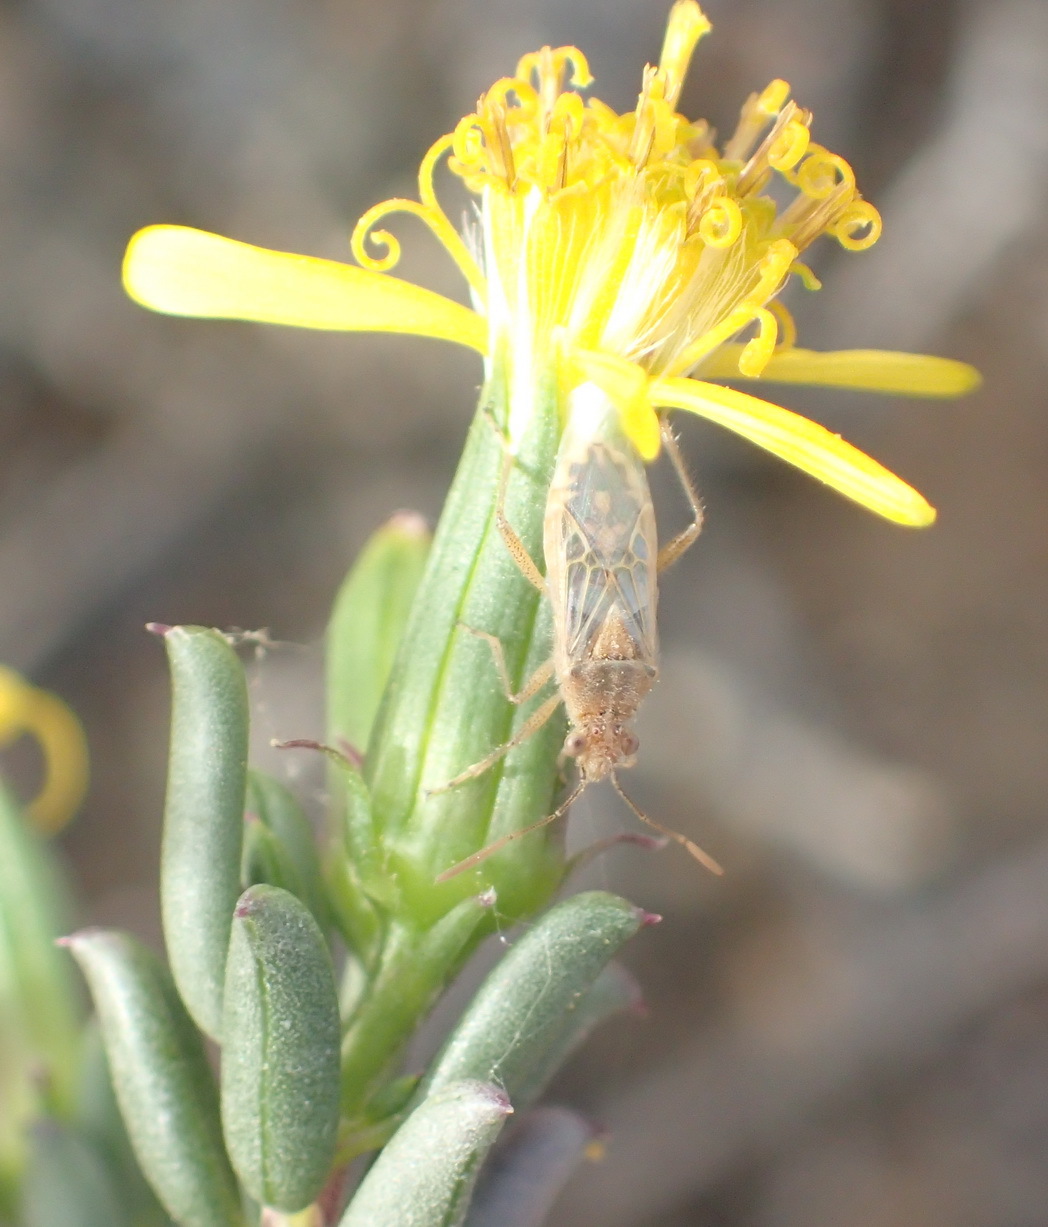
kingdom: Plantae
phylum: Tracheophyta
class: Magnoliopsida
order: Asterales
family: Asteraceae
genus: Senecio
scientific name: Senecio acutifolius
